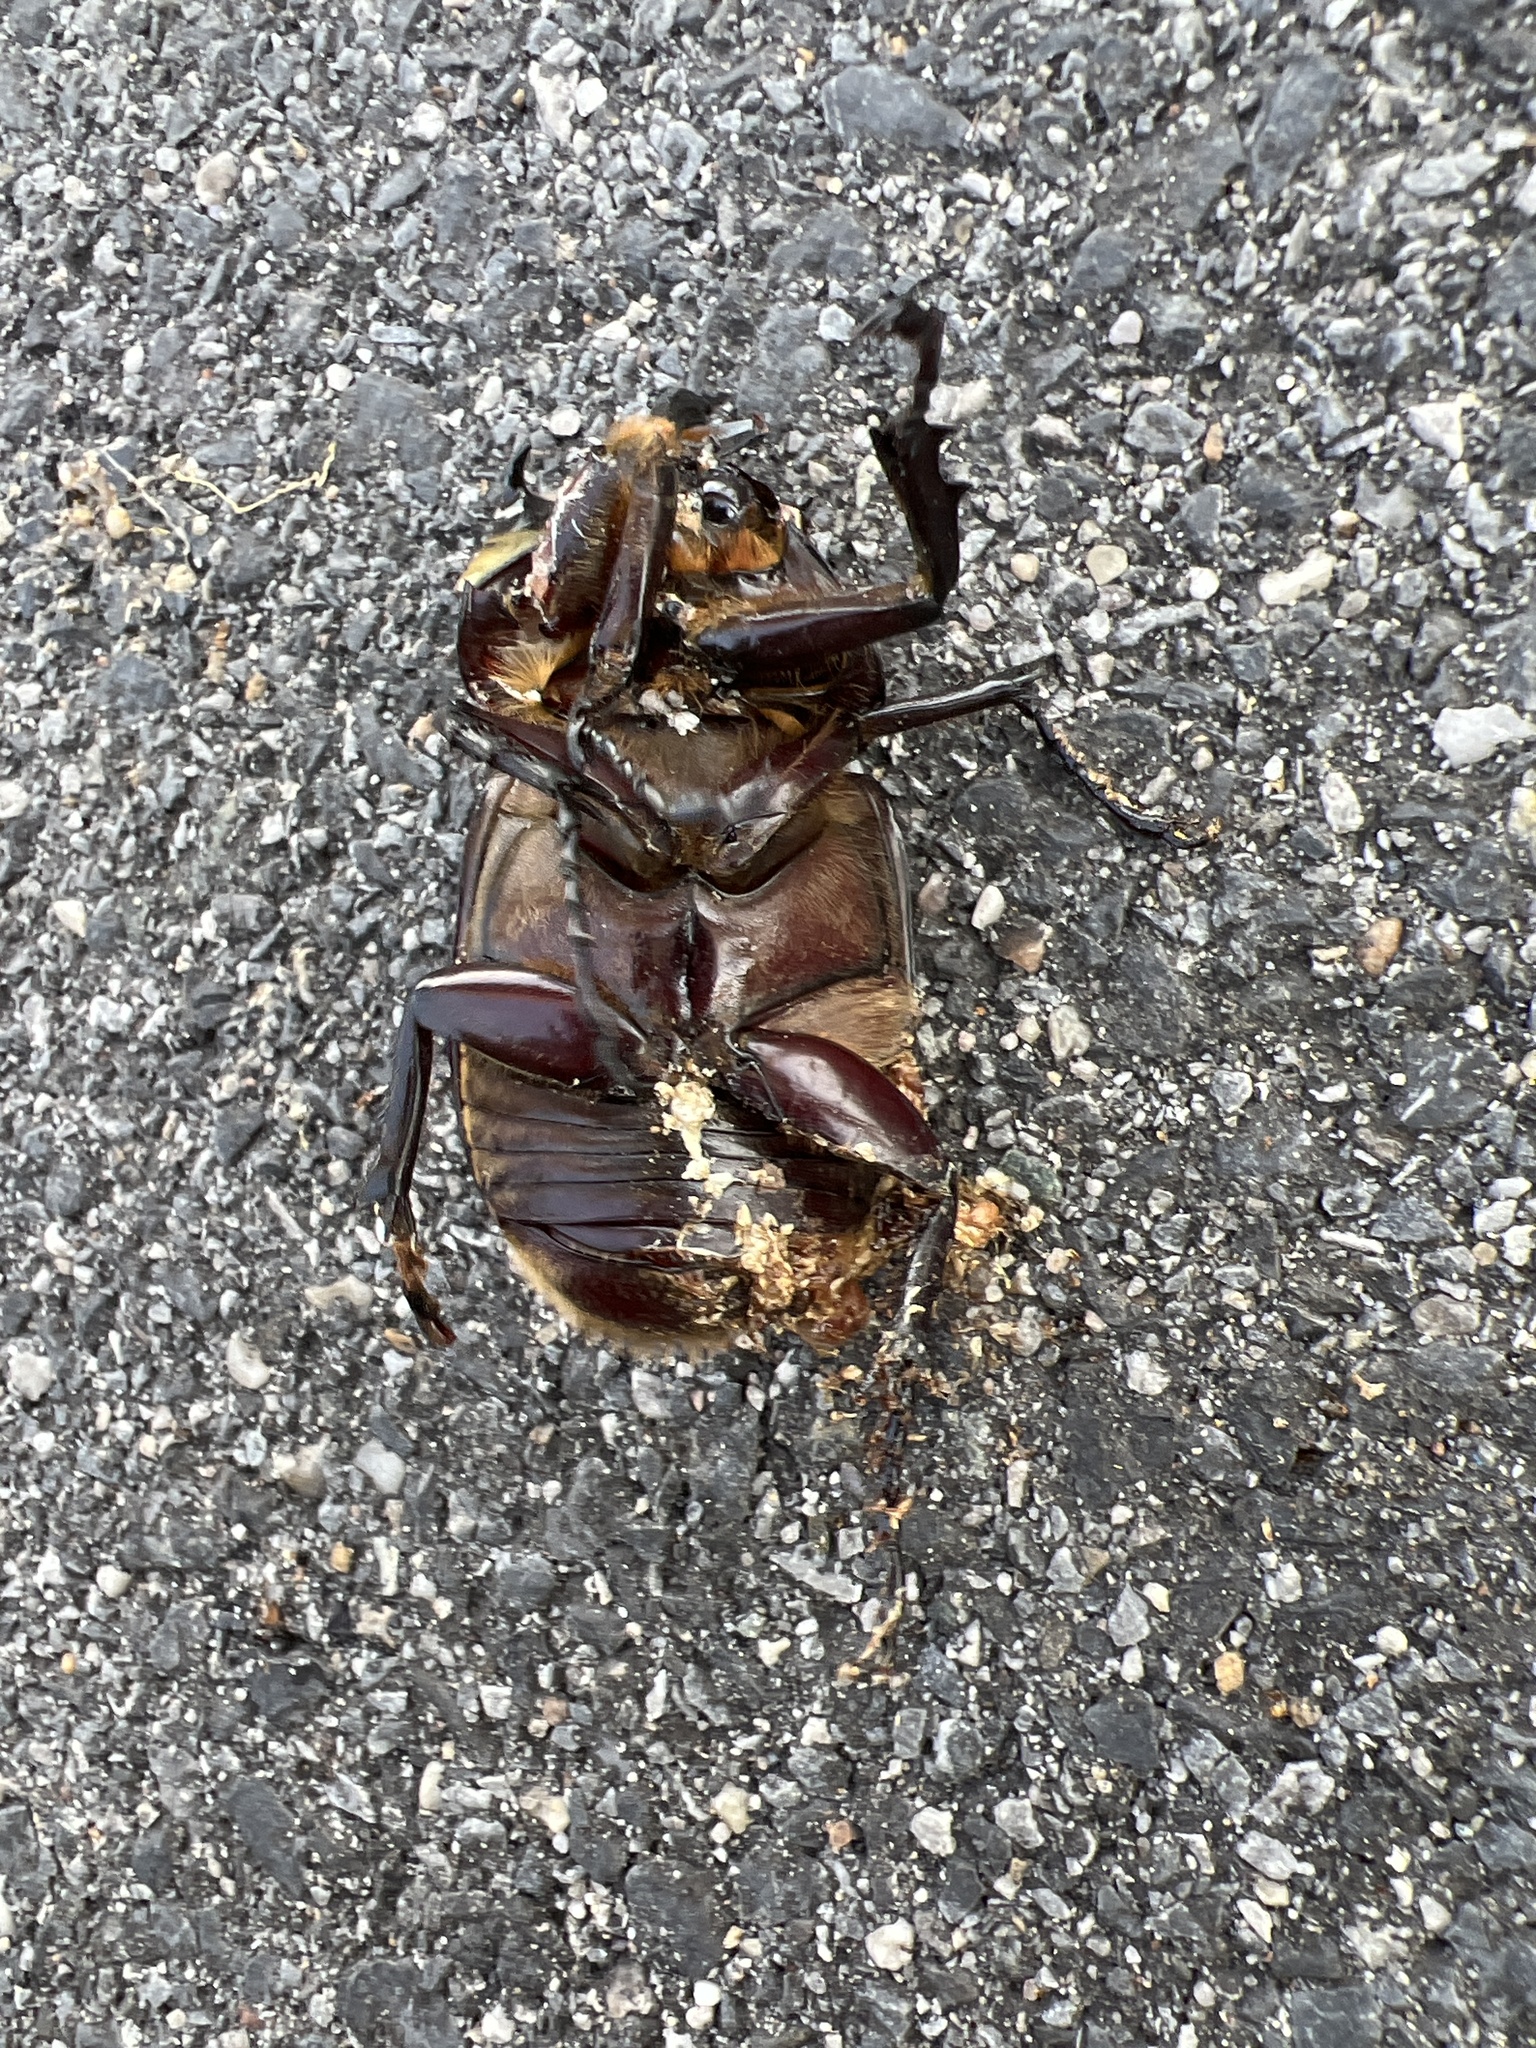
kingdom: Animalia
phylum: Arthropoda
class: Insecta
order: Coleoptera
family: Scarabaeidae
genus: Dynastes
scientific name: Dynastes tityus
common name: Eastern hercules beetle
